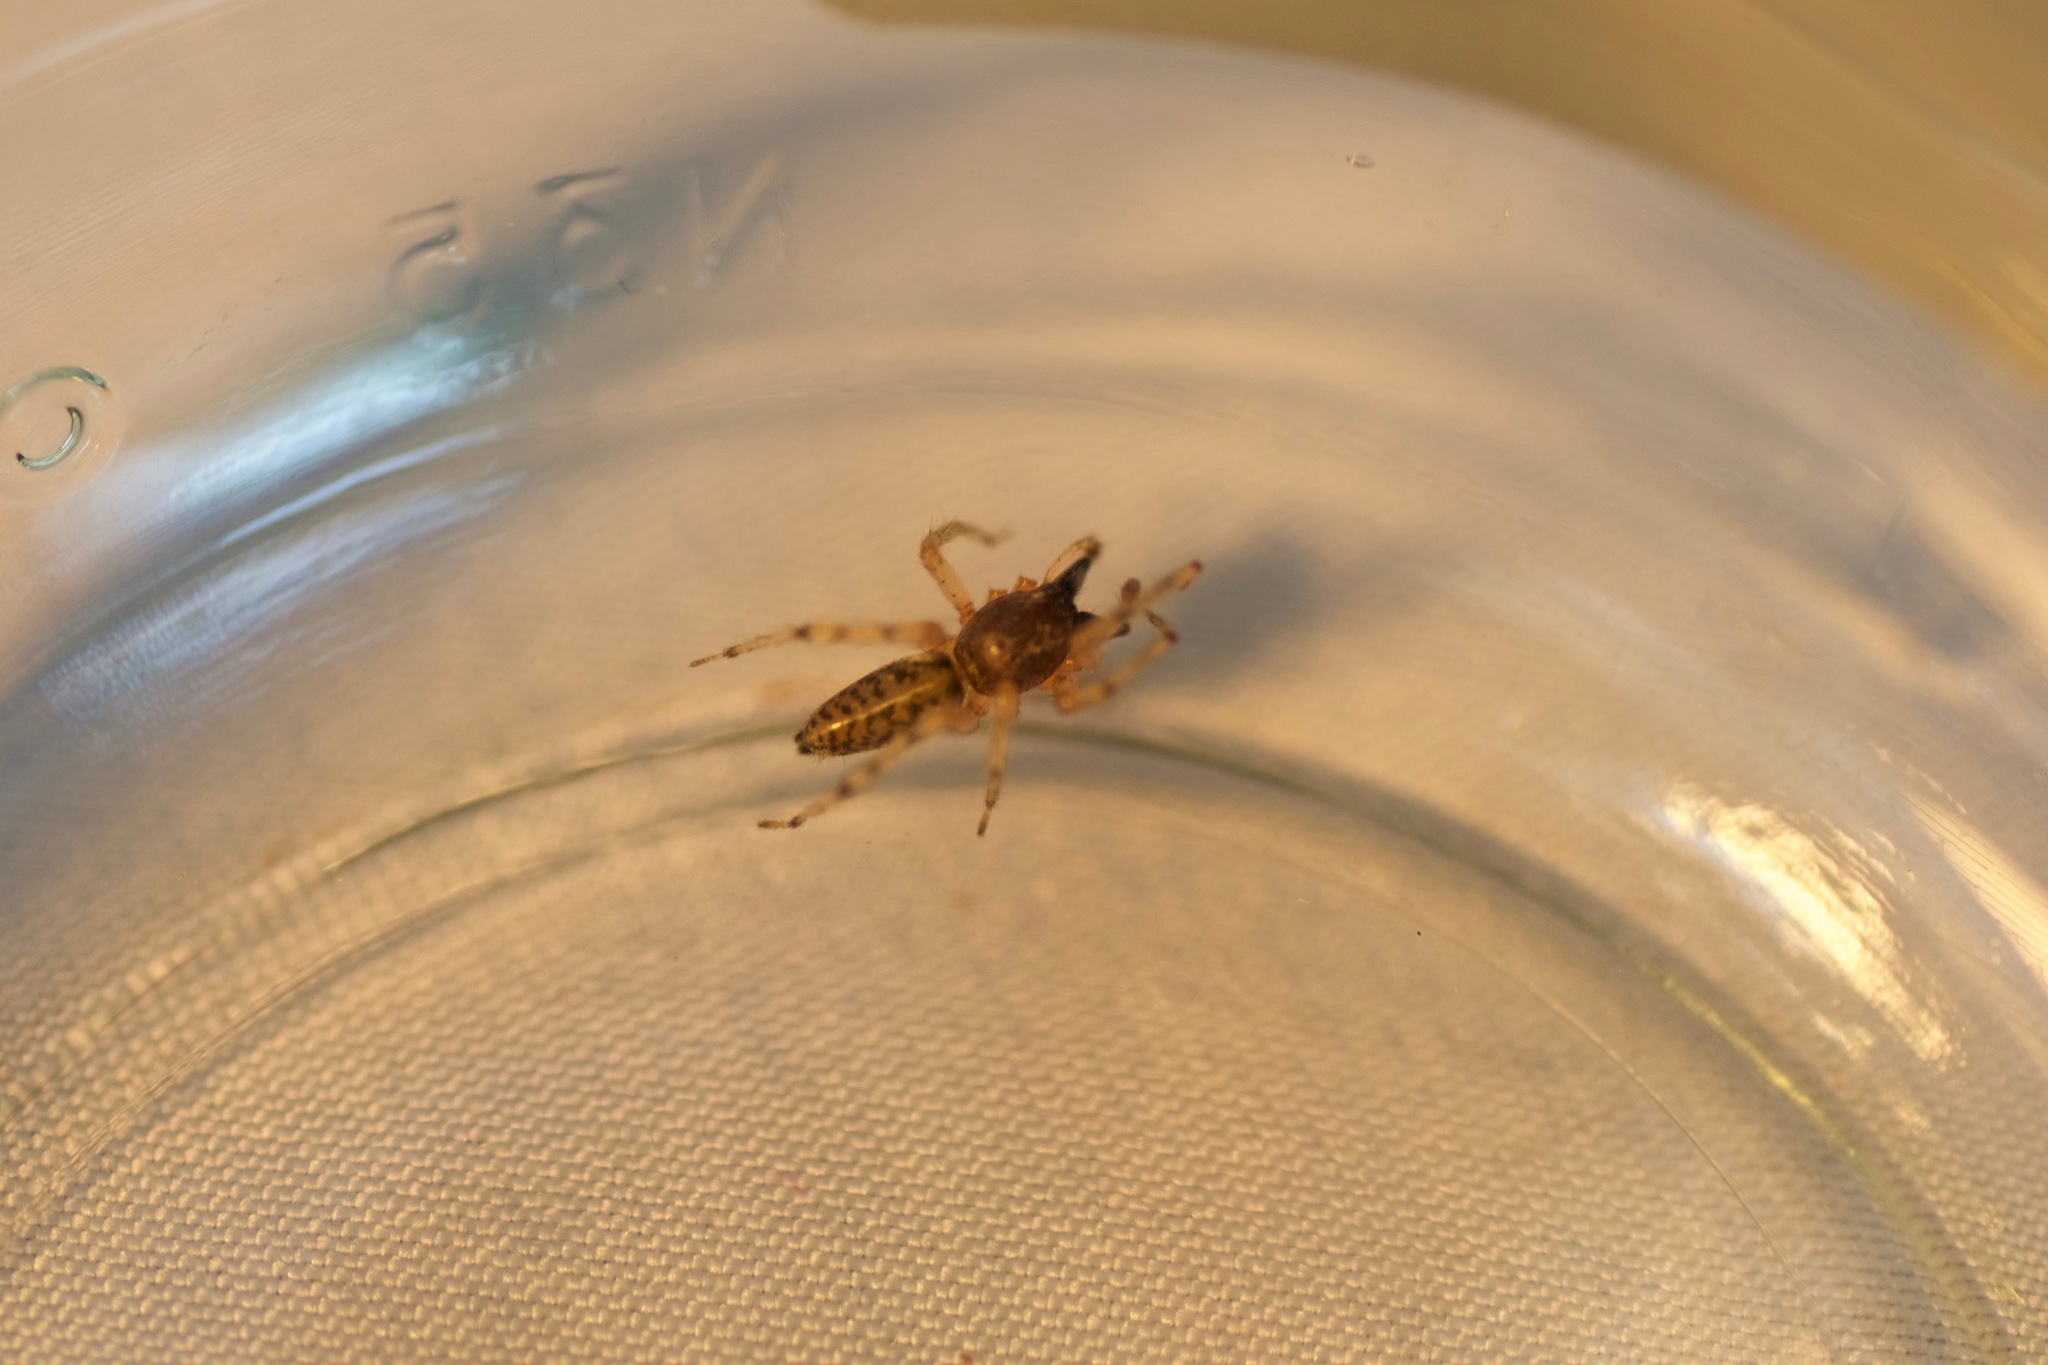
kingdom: Animalia
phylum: Arthropoda
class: Arachnida
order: Araneae
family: Anyphaenidae
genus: Lupettiana
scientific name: Lupettiana mordax
